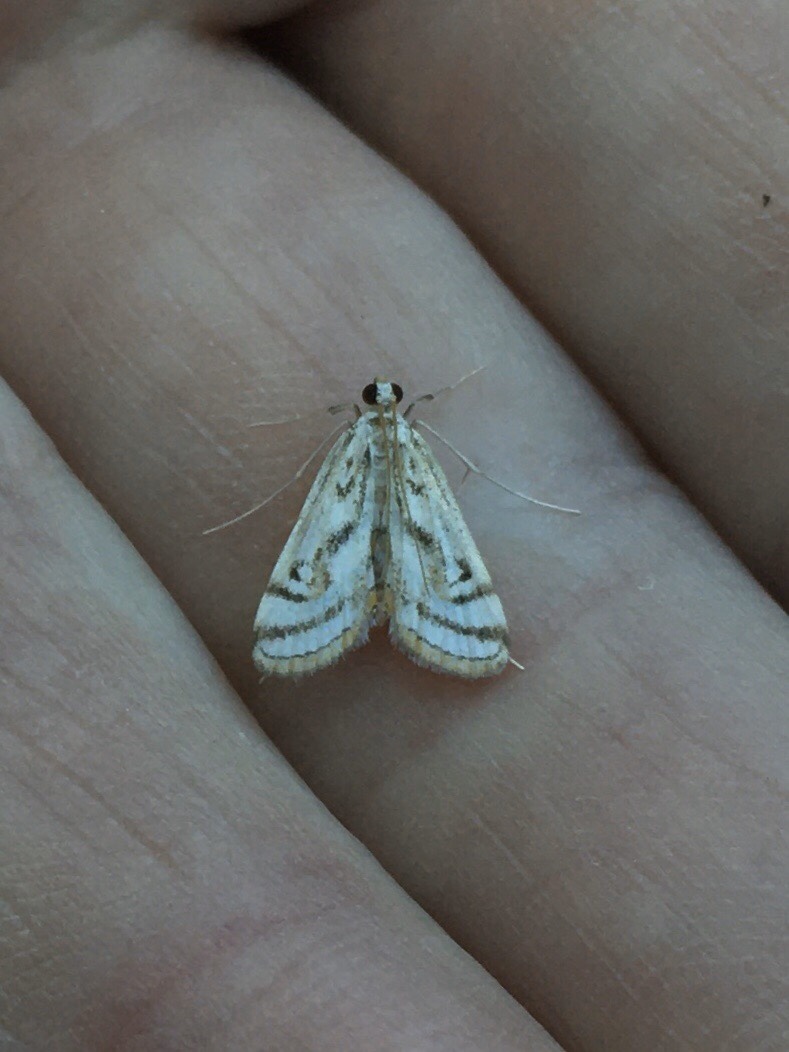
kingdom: Animalia
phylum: Arthropoda
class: Insecta
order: Lepidoptera
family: Crambidae
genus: Parapoynx
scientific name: Parapoynx badiusalis
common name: Chestnut-marked pondweed moth
